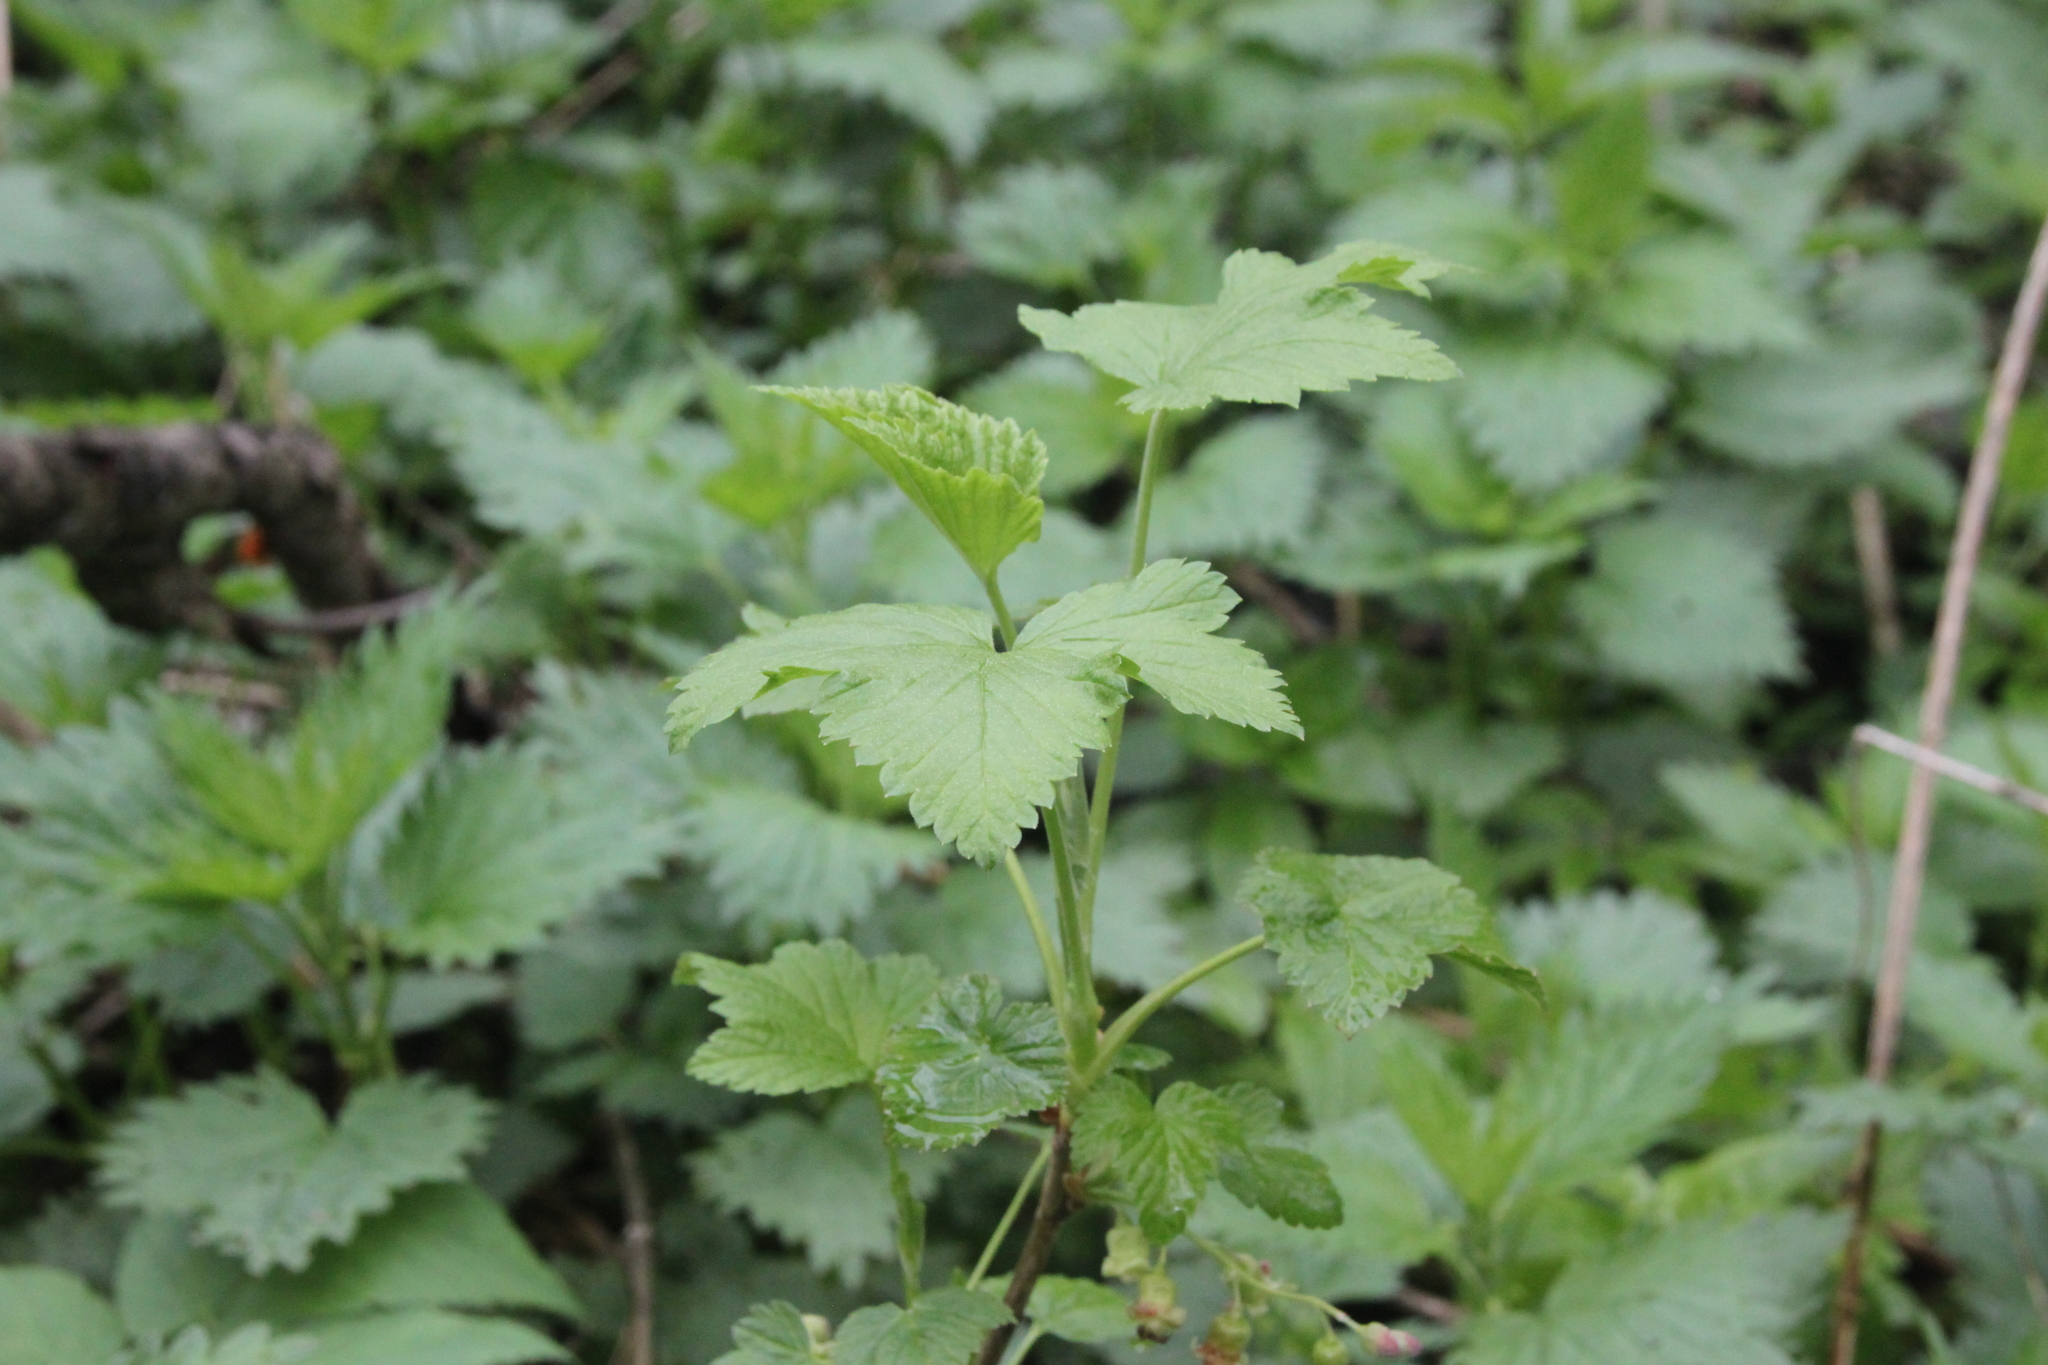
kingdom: Plantae
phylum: Tracheophyta
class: Magnoliopsida
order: Saxifragales
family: Grossulariaceae
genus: Ribes
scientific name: Ribes nigrum
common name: Black currant
